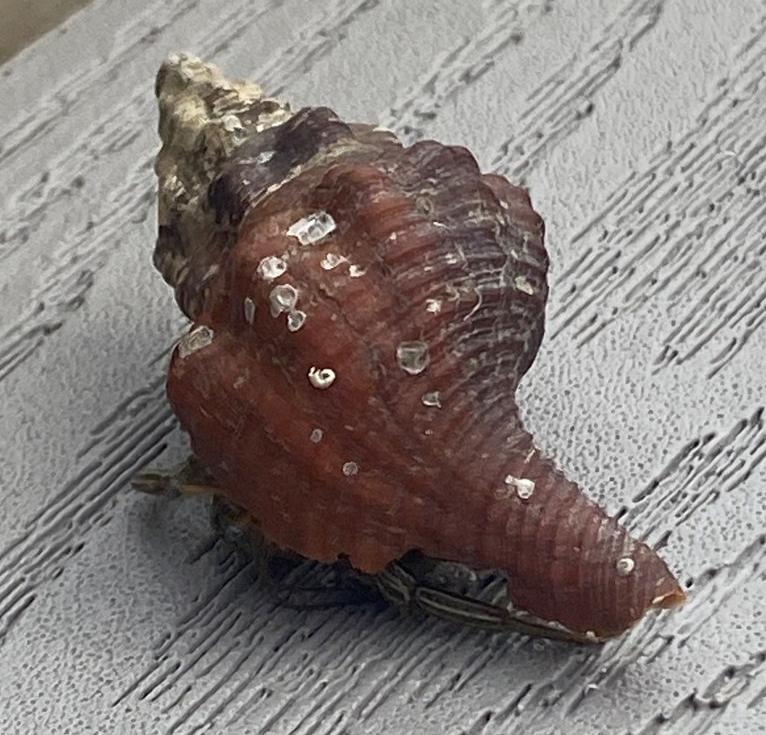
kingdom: Animalia
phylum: Arthropoda
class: Malacostraca
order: Decapoda
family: Diogenidae
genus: Clibanarius
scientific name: Clibanarius vittatus
